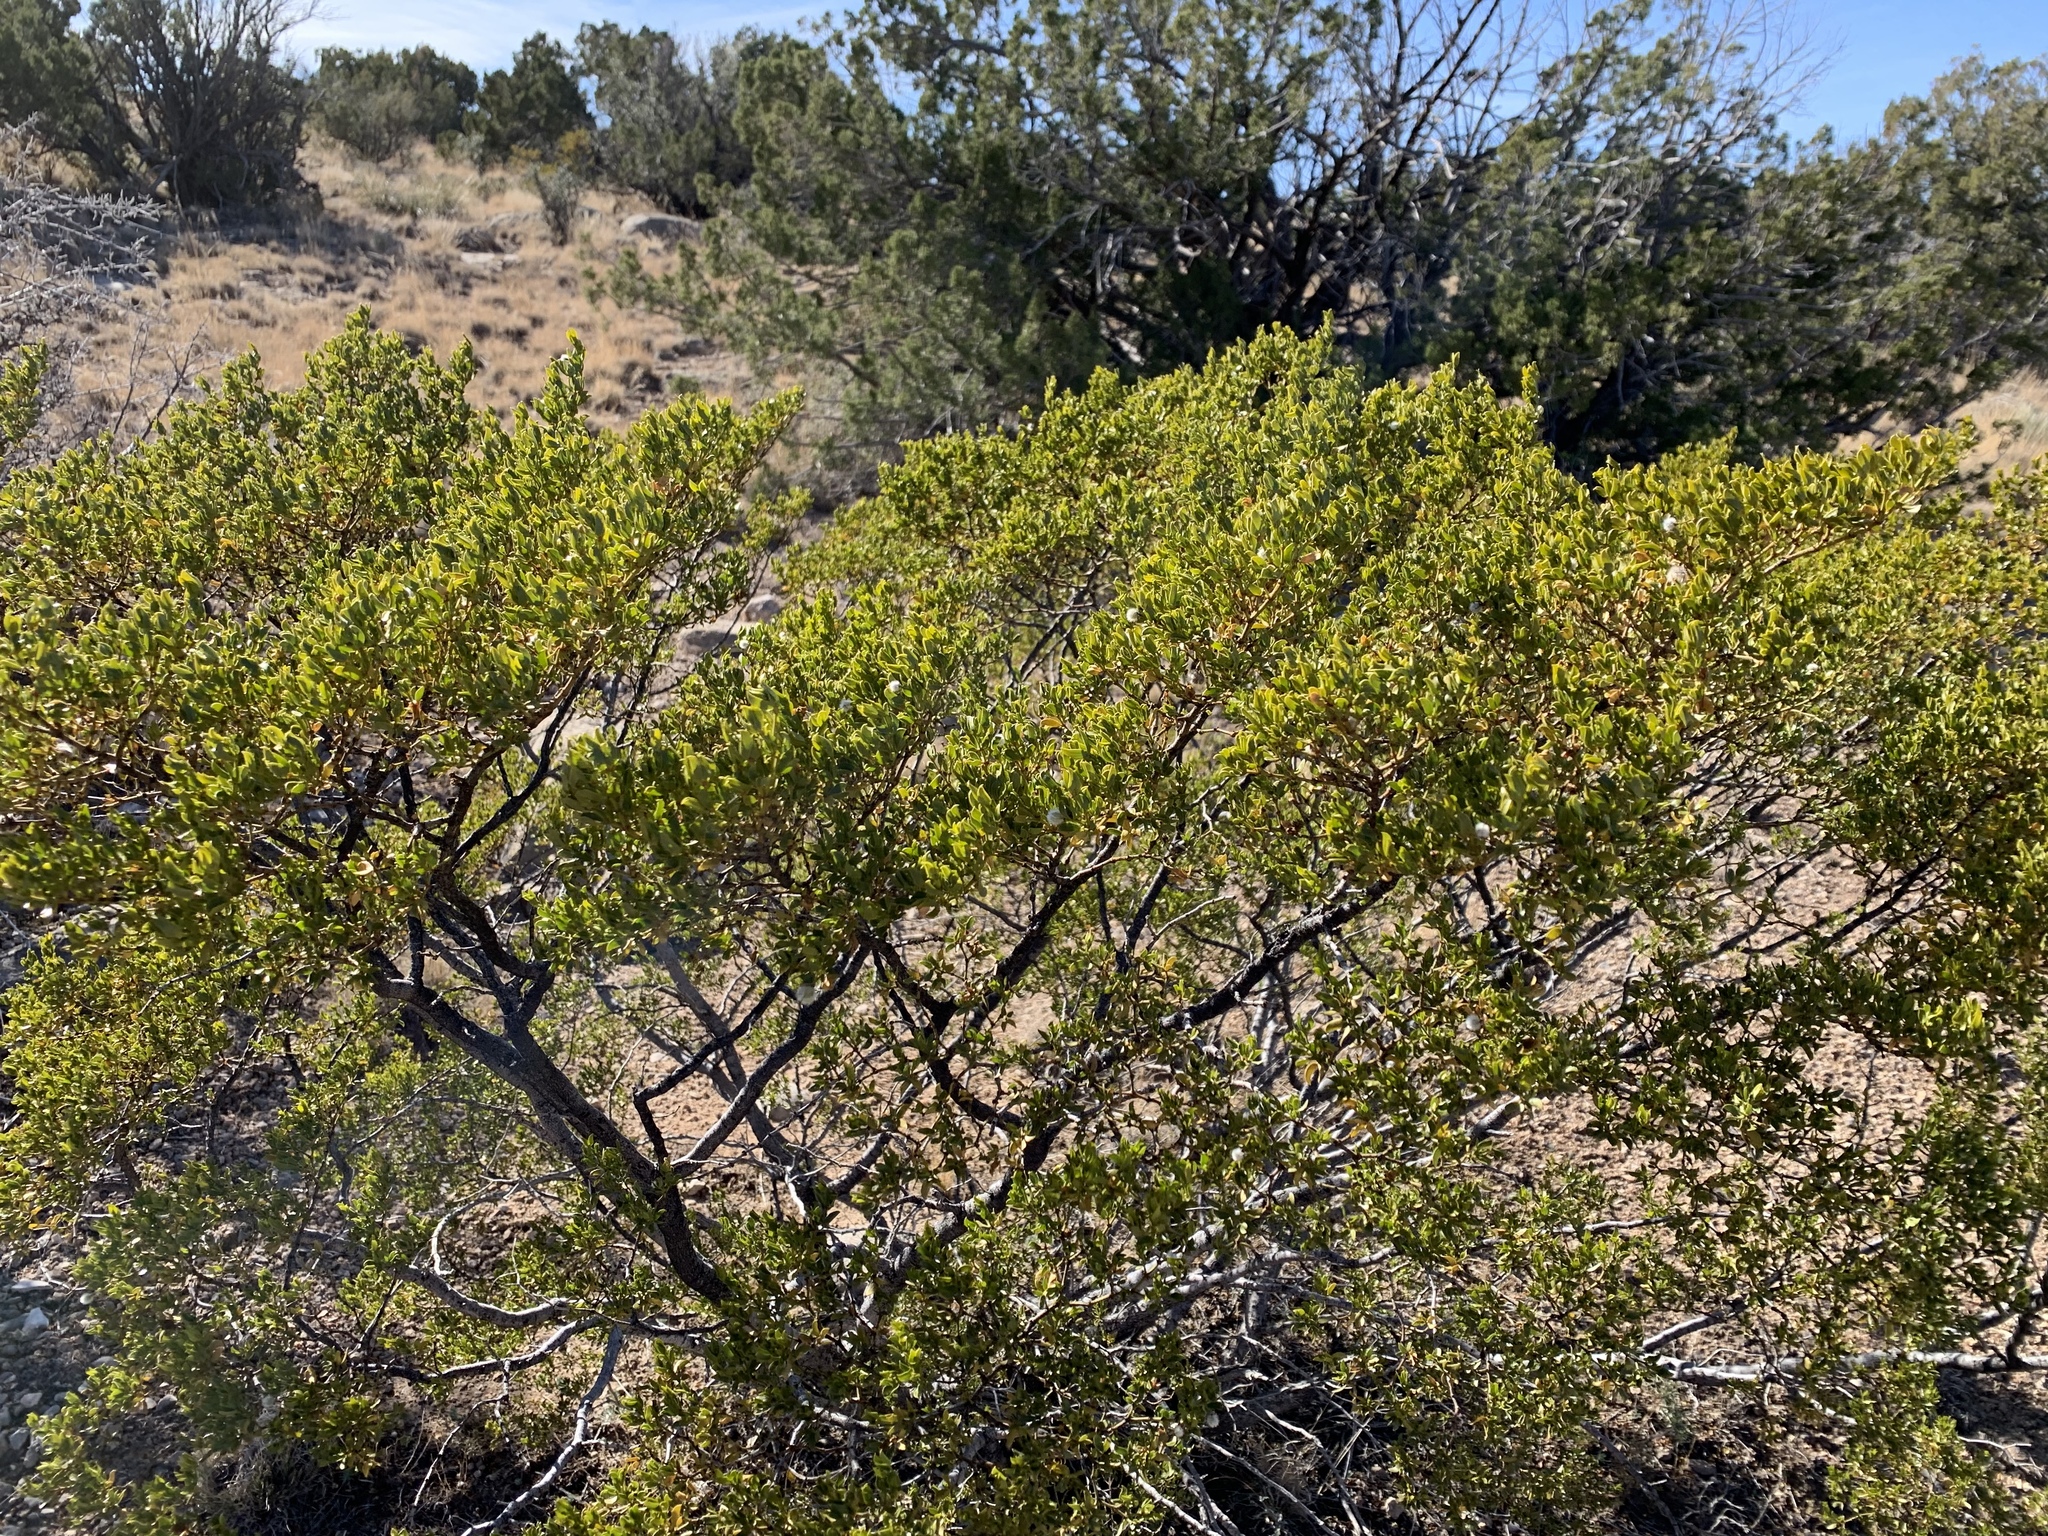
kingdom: Plantae
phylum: Tracheophyta
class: Magnoliopsida
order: Zygophyllales
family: Zygophyllaceae
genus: Larrea
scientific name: Larrea tridentata
